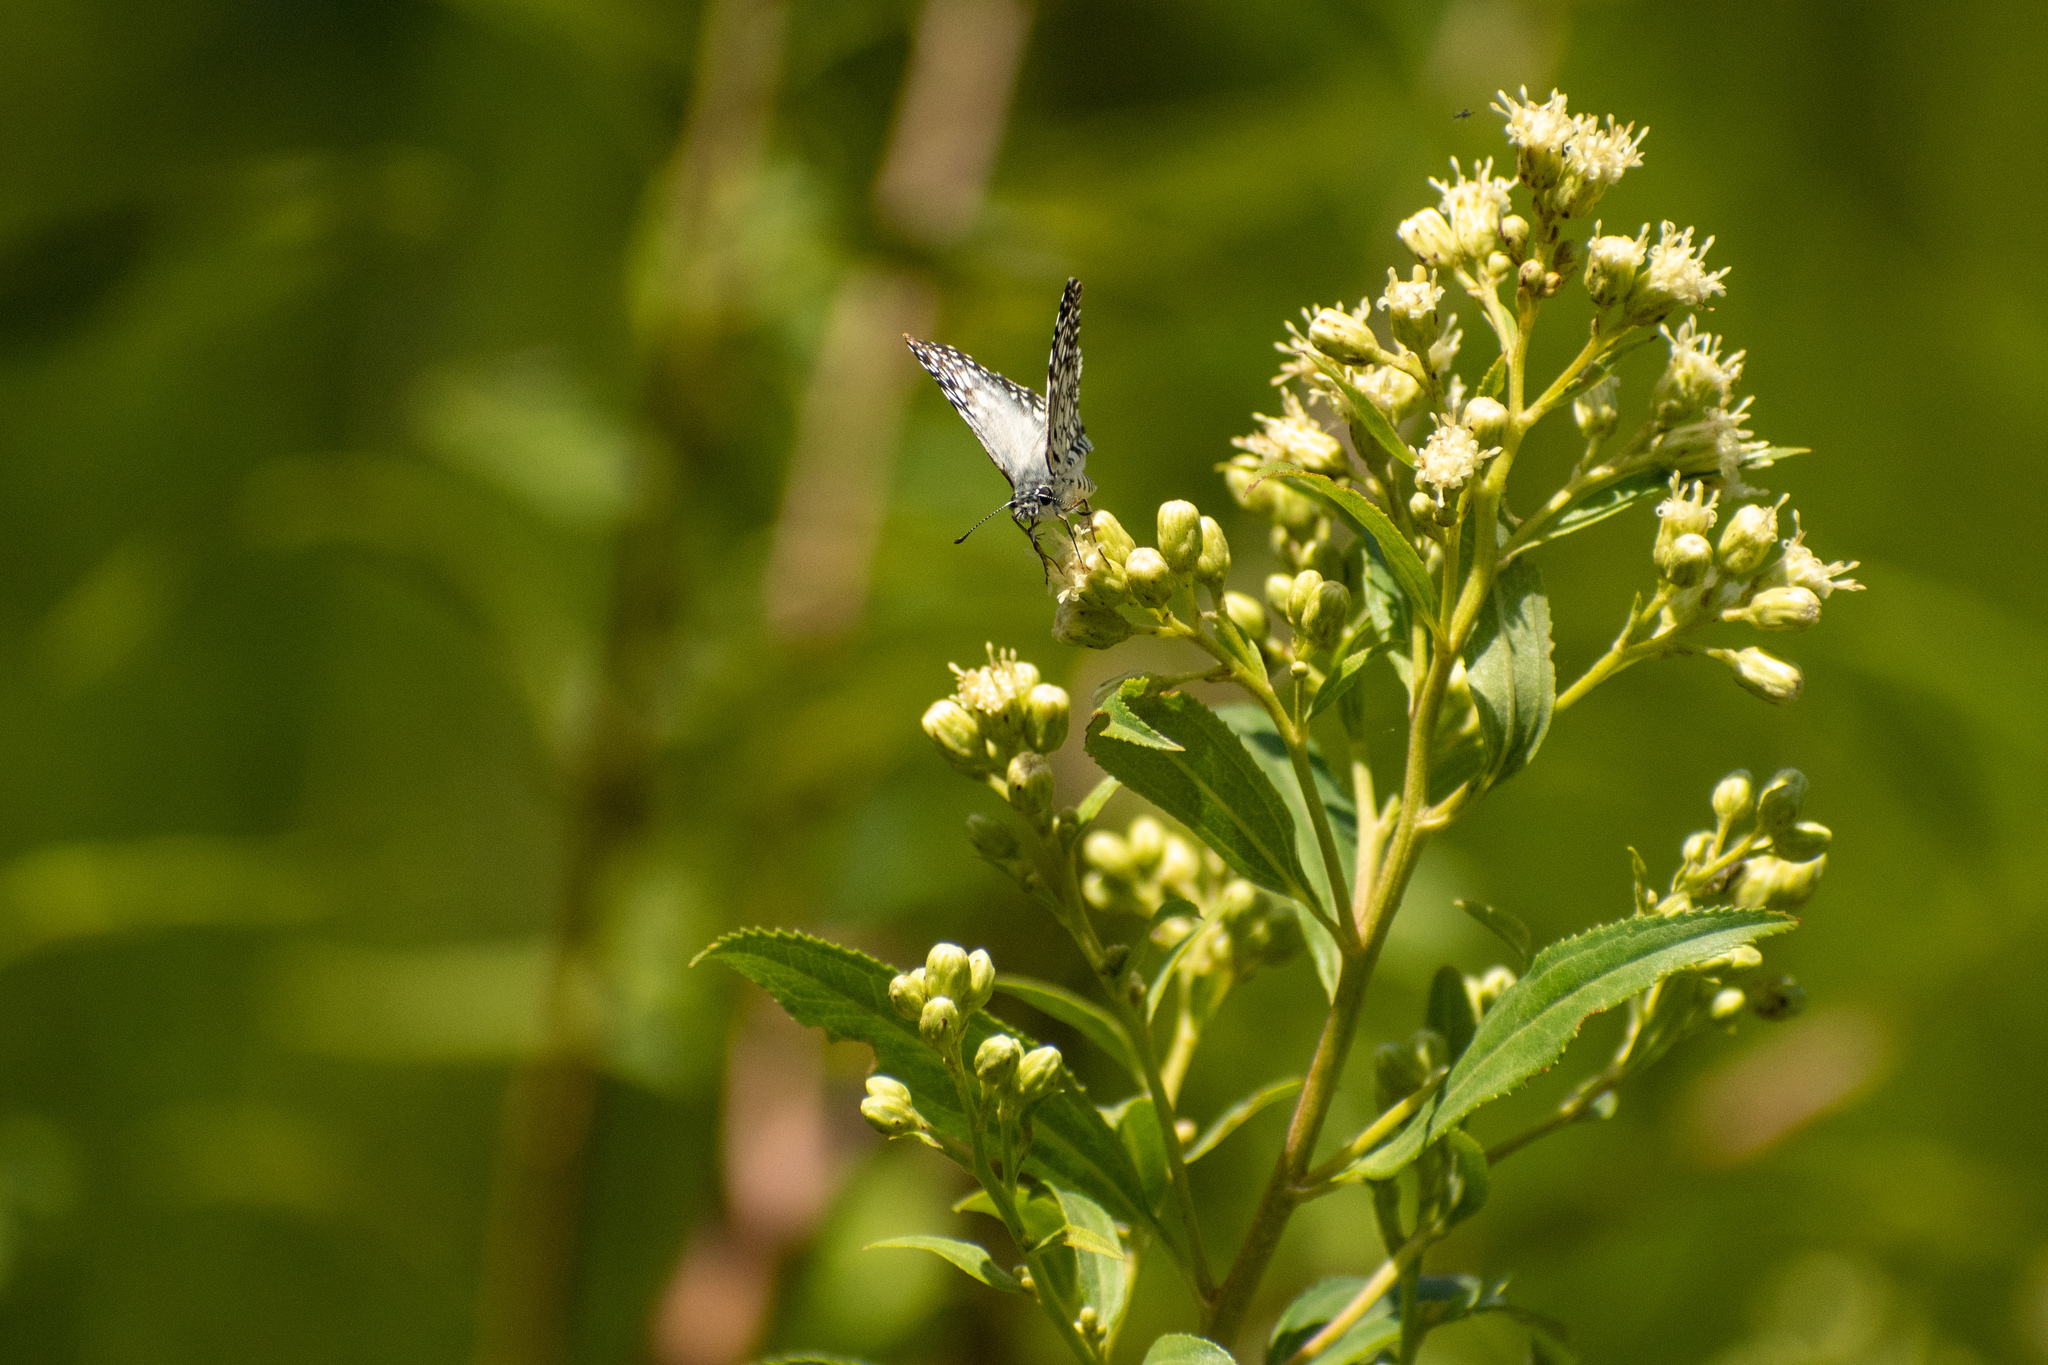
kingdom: Animalia
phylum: Arthropoda
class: Insecta
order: Lepidoptera
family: Hesperiidae
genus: Pyrgus
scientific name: Pyrgus oileus
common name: Tropical checkered-skipper
